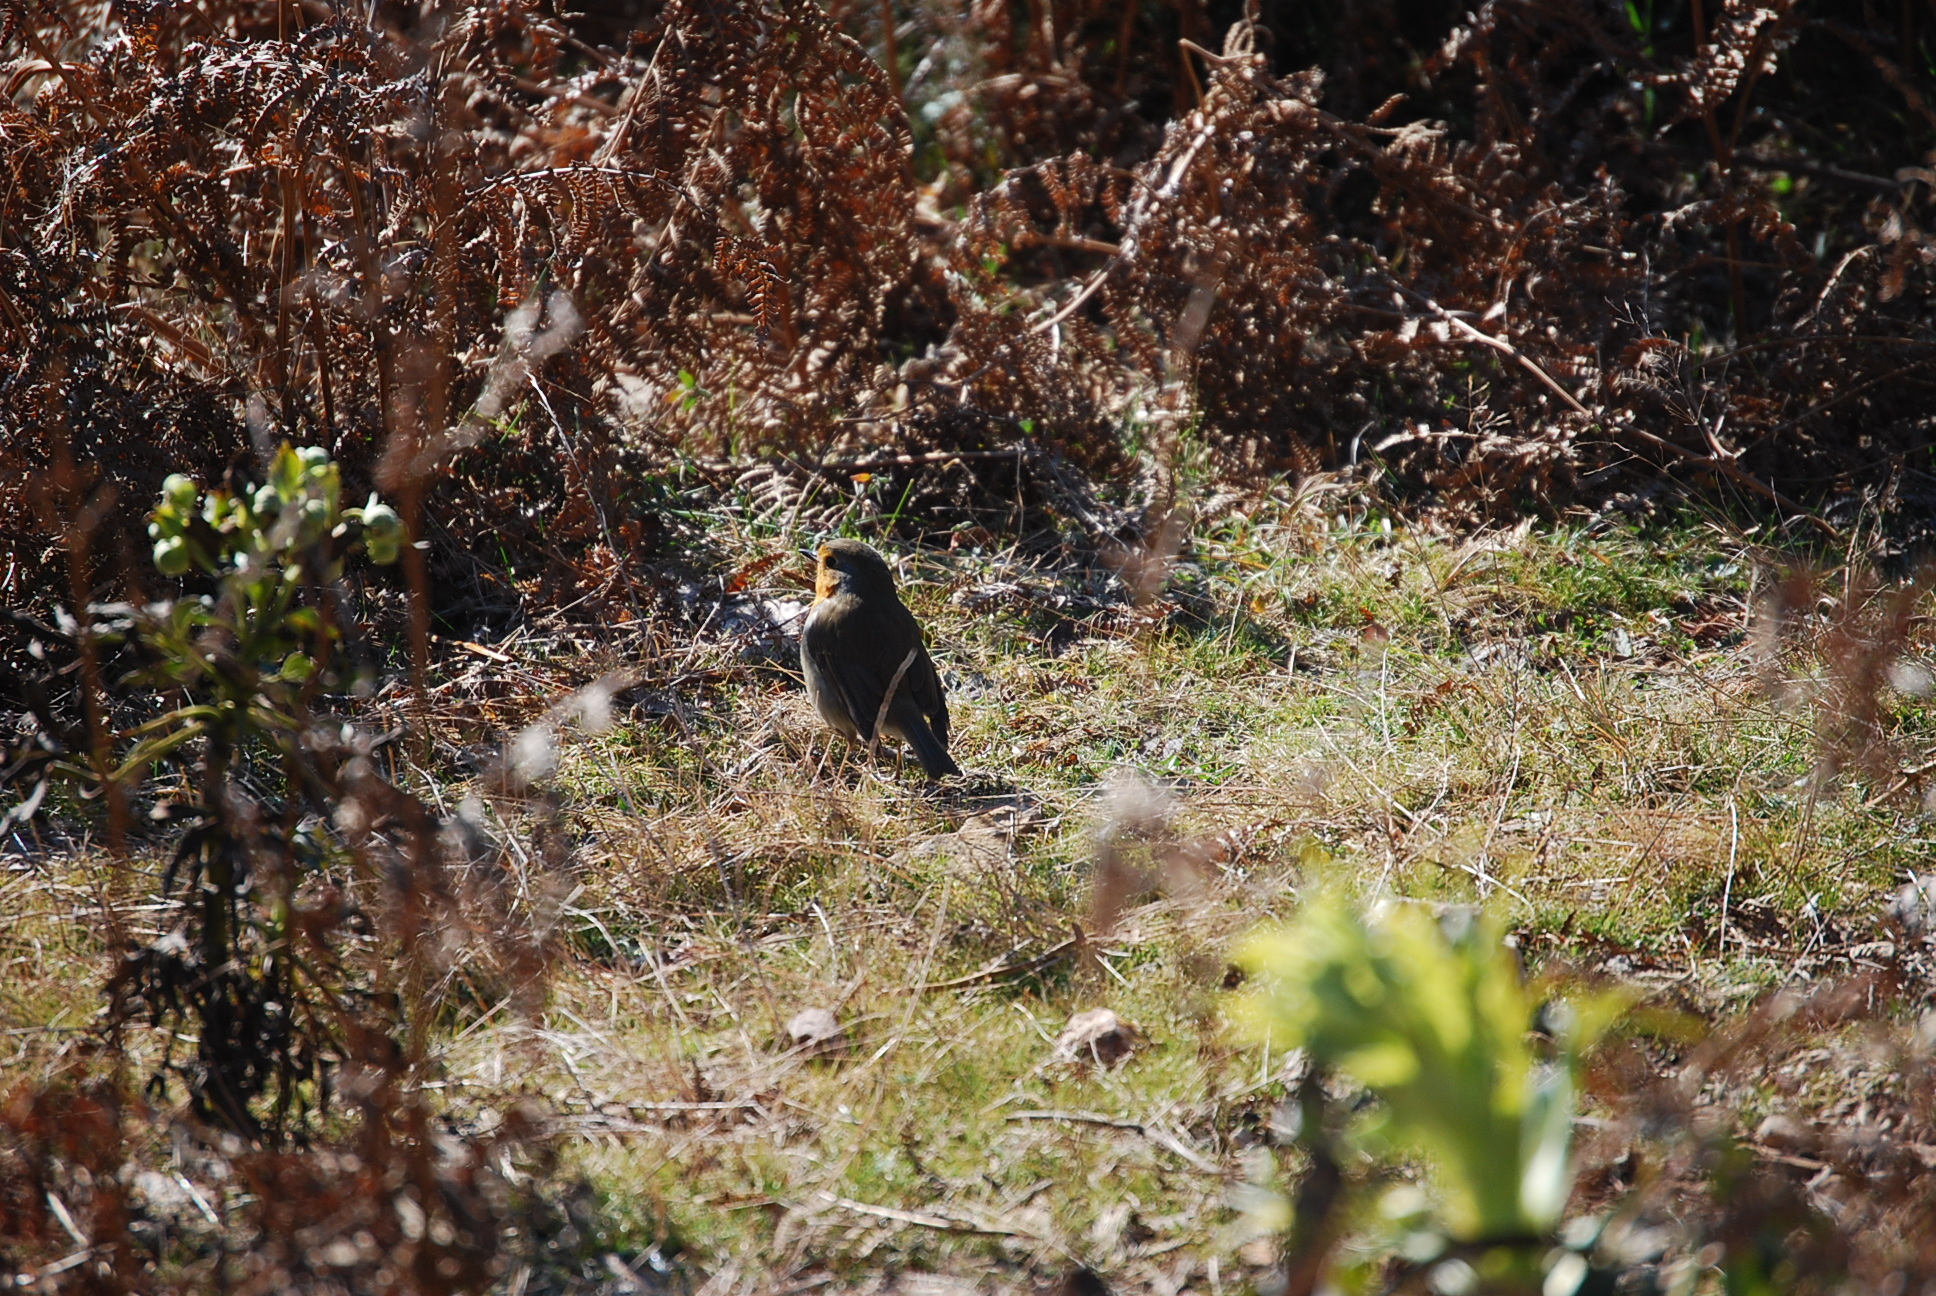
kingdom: Animalia
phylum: Chordata
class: Aves
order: Passeriformes
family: Muscicapidae
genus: Erithacus
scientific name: Erithacus rubecula
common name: European robin
